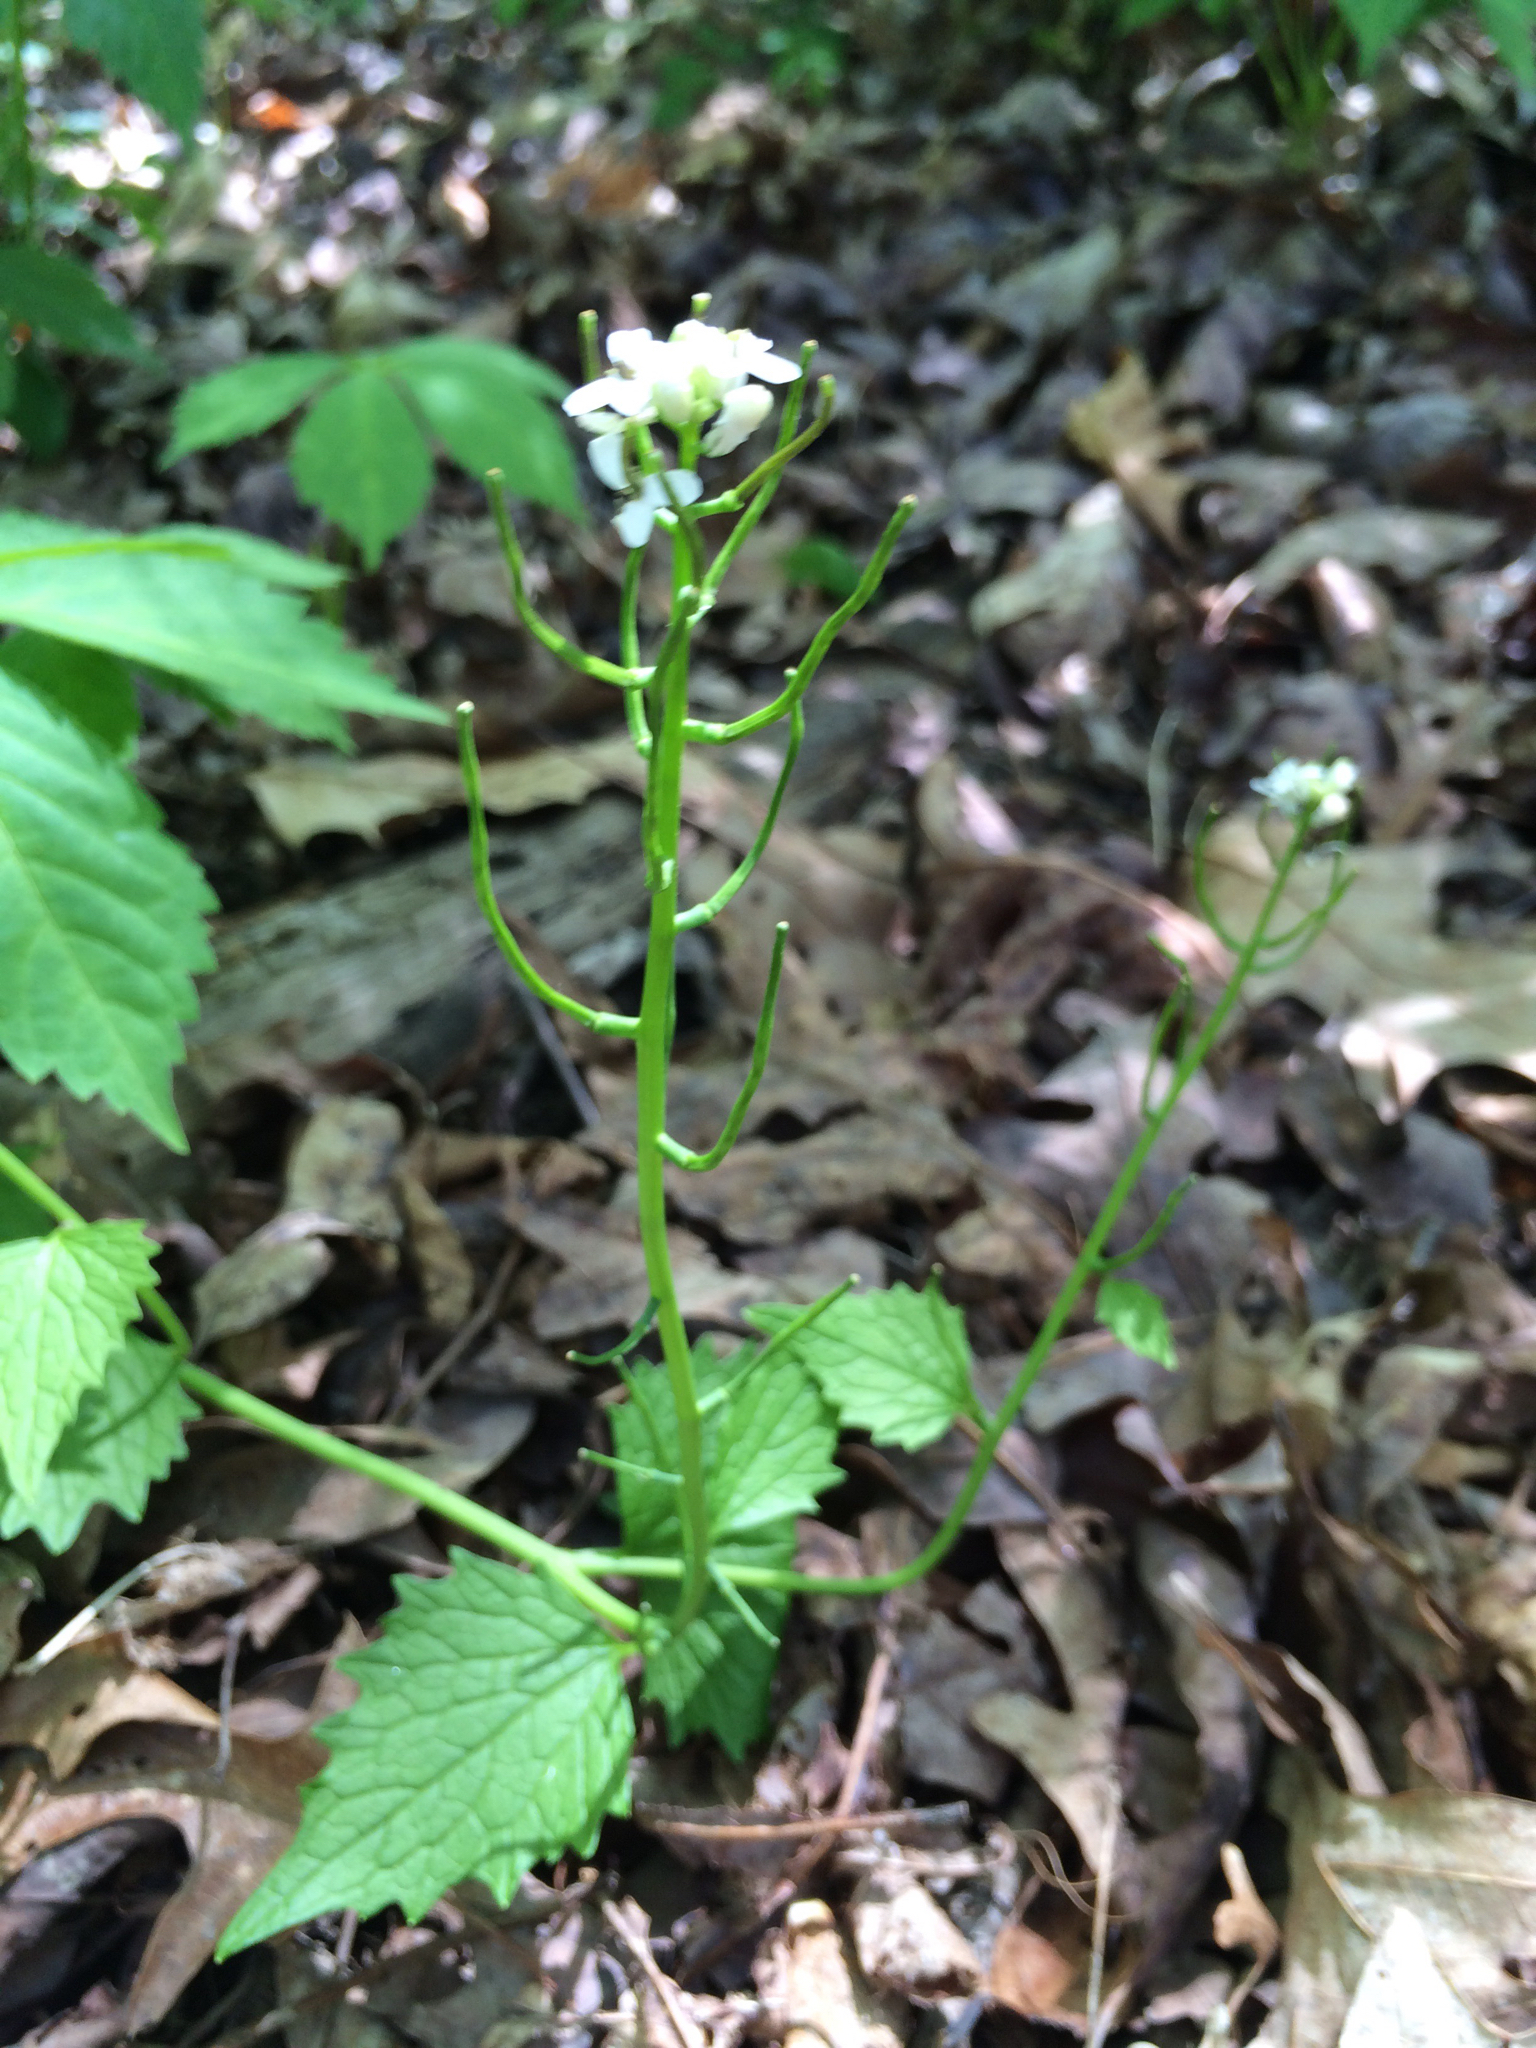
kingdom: Plantae
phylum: Tracheophyta
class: Magnoliopsida
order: Brassicales
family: Brassicaceae
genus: Alliaria
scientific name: Alliaria petiolata
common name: Garlic mustard
